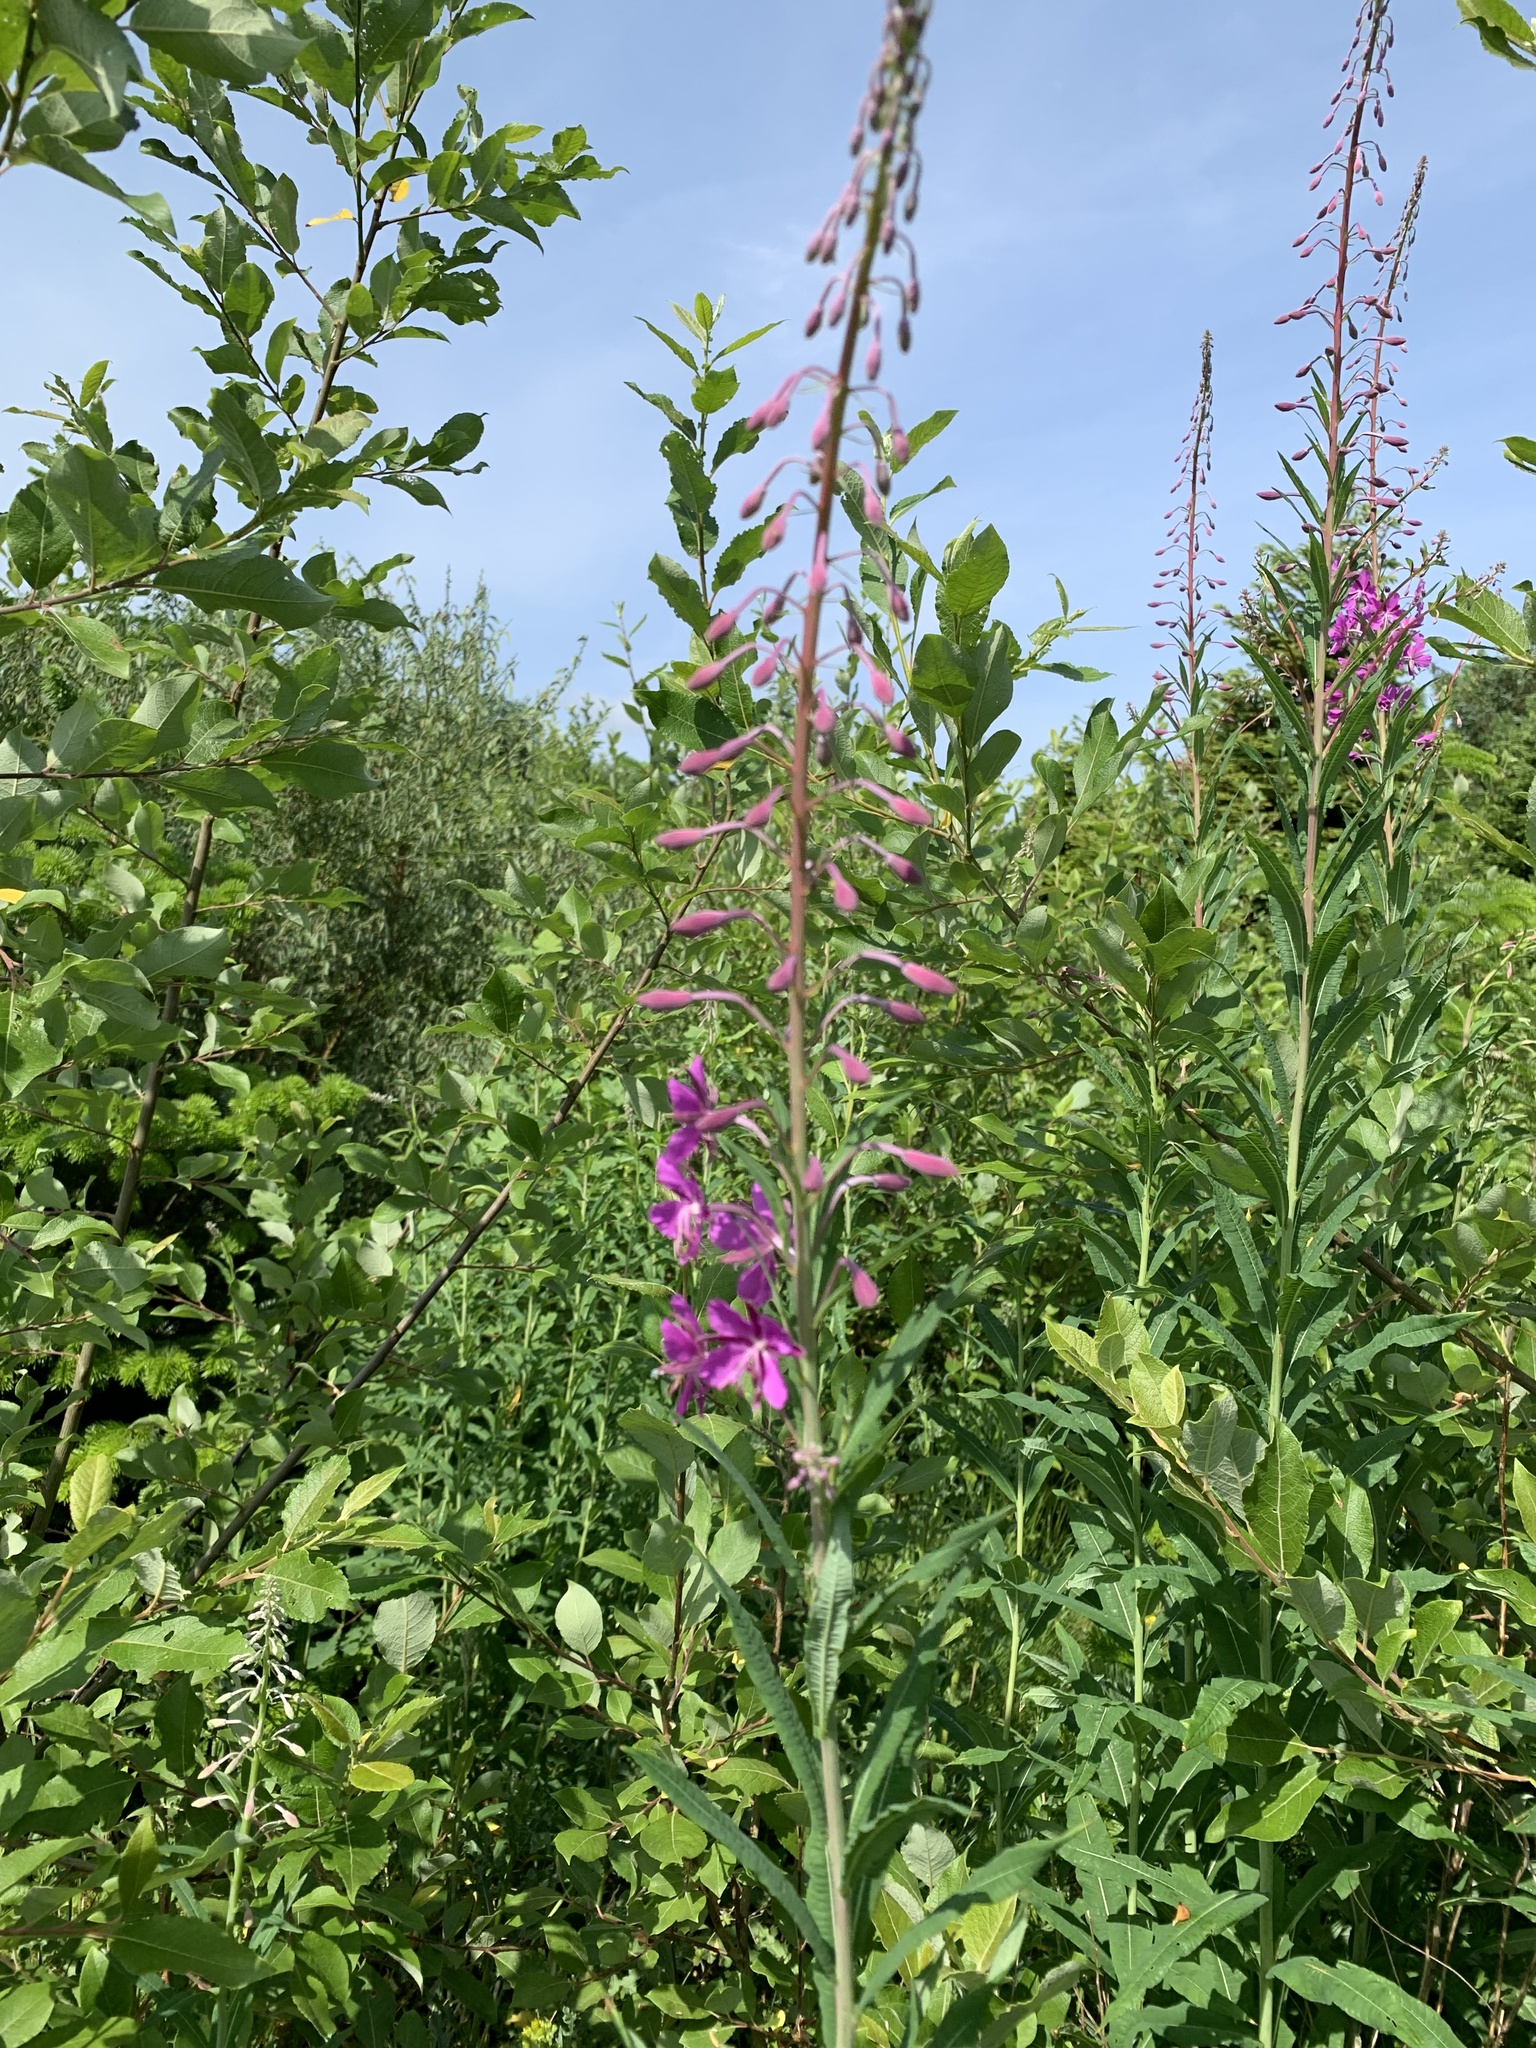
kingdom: Plantae
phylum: Tracheophyta
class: Magnoliopsida
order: Myrtales
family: Onagraceae
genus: Chamaenerion
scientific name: Chamaenerion angustifolium
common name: Fireweed
